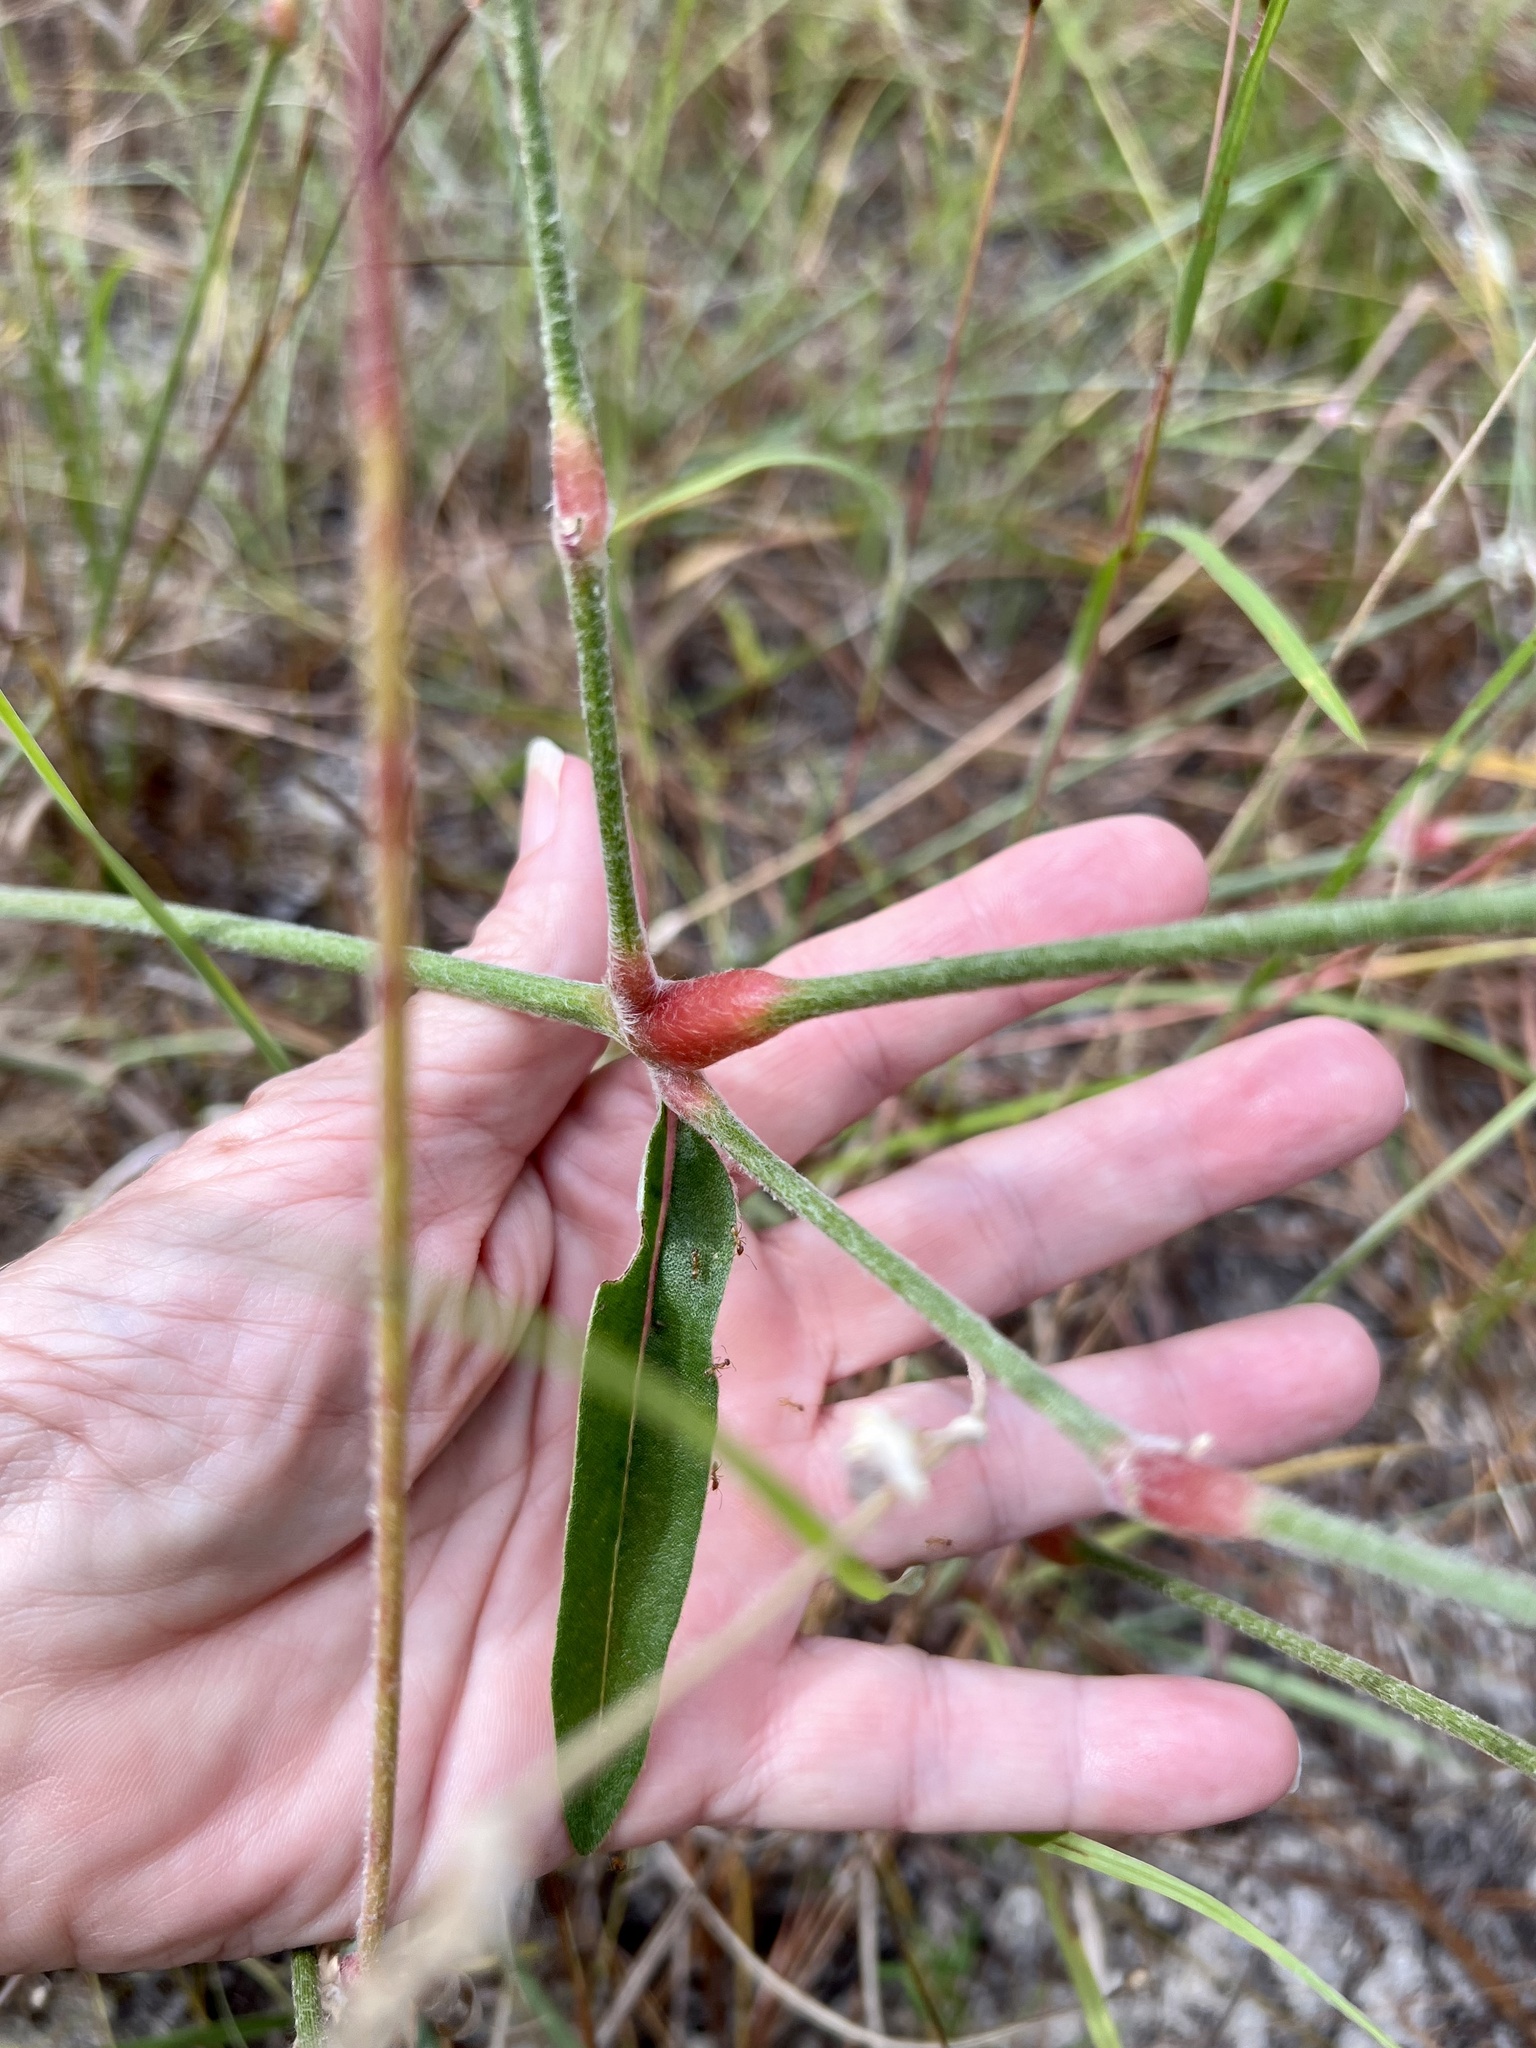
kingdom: Plantae
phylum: Tracheophyta
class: Magnoliopsida
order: Caryophyllales
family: Amaranthaceae
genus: Froelichia
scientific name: Froelichia floridana
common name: Florida snake-cotton
